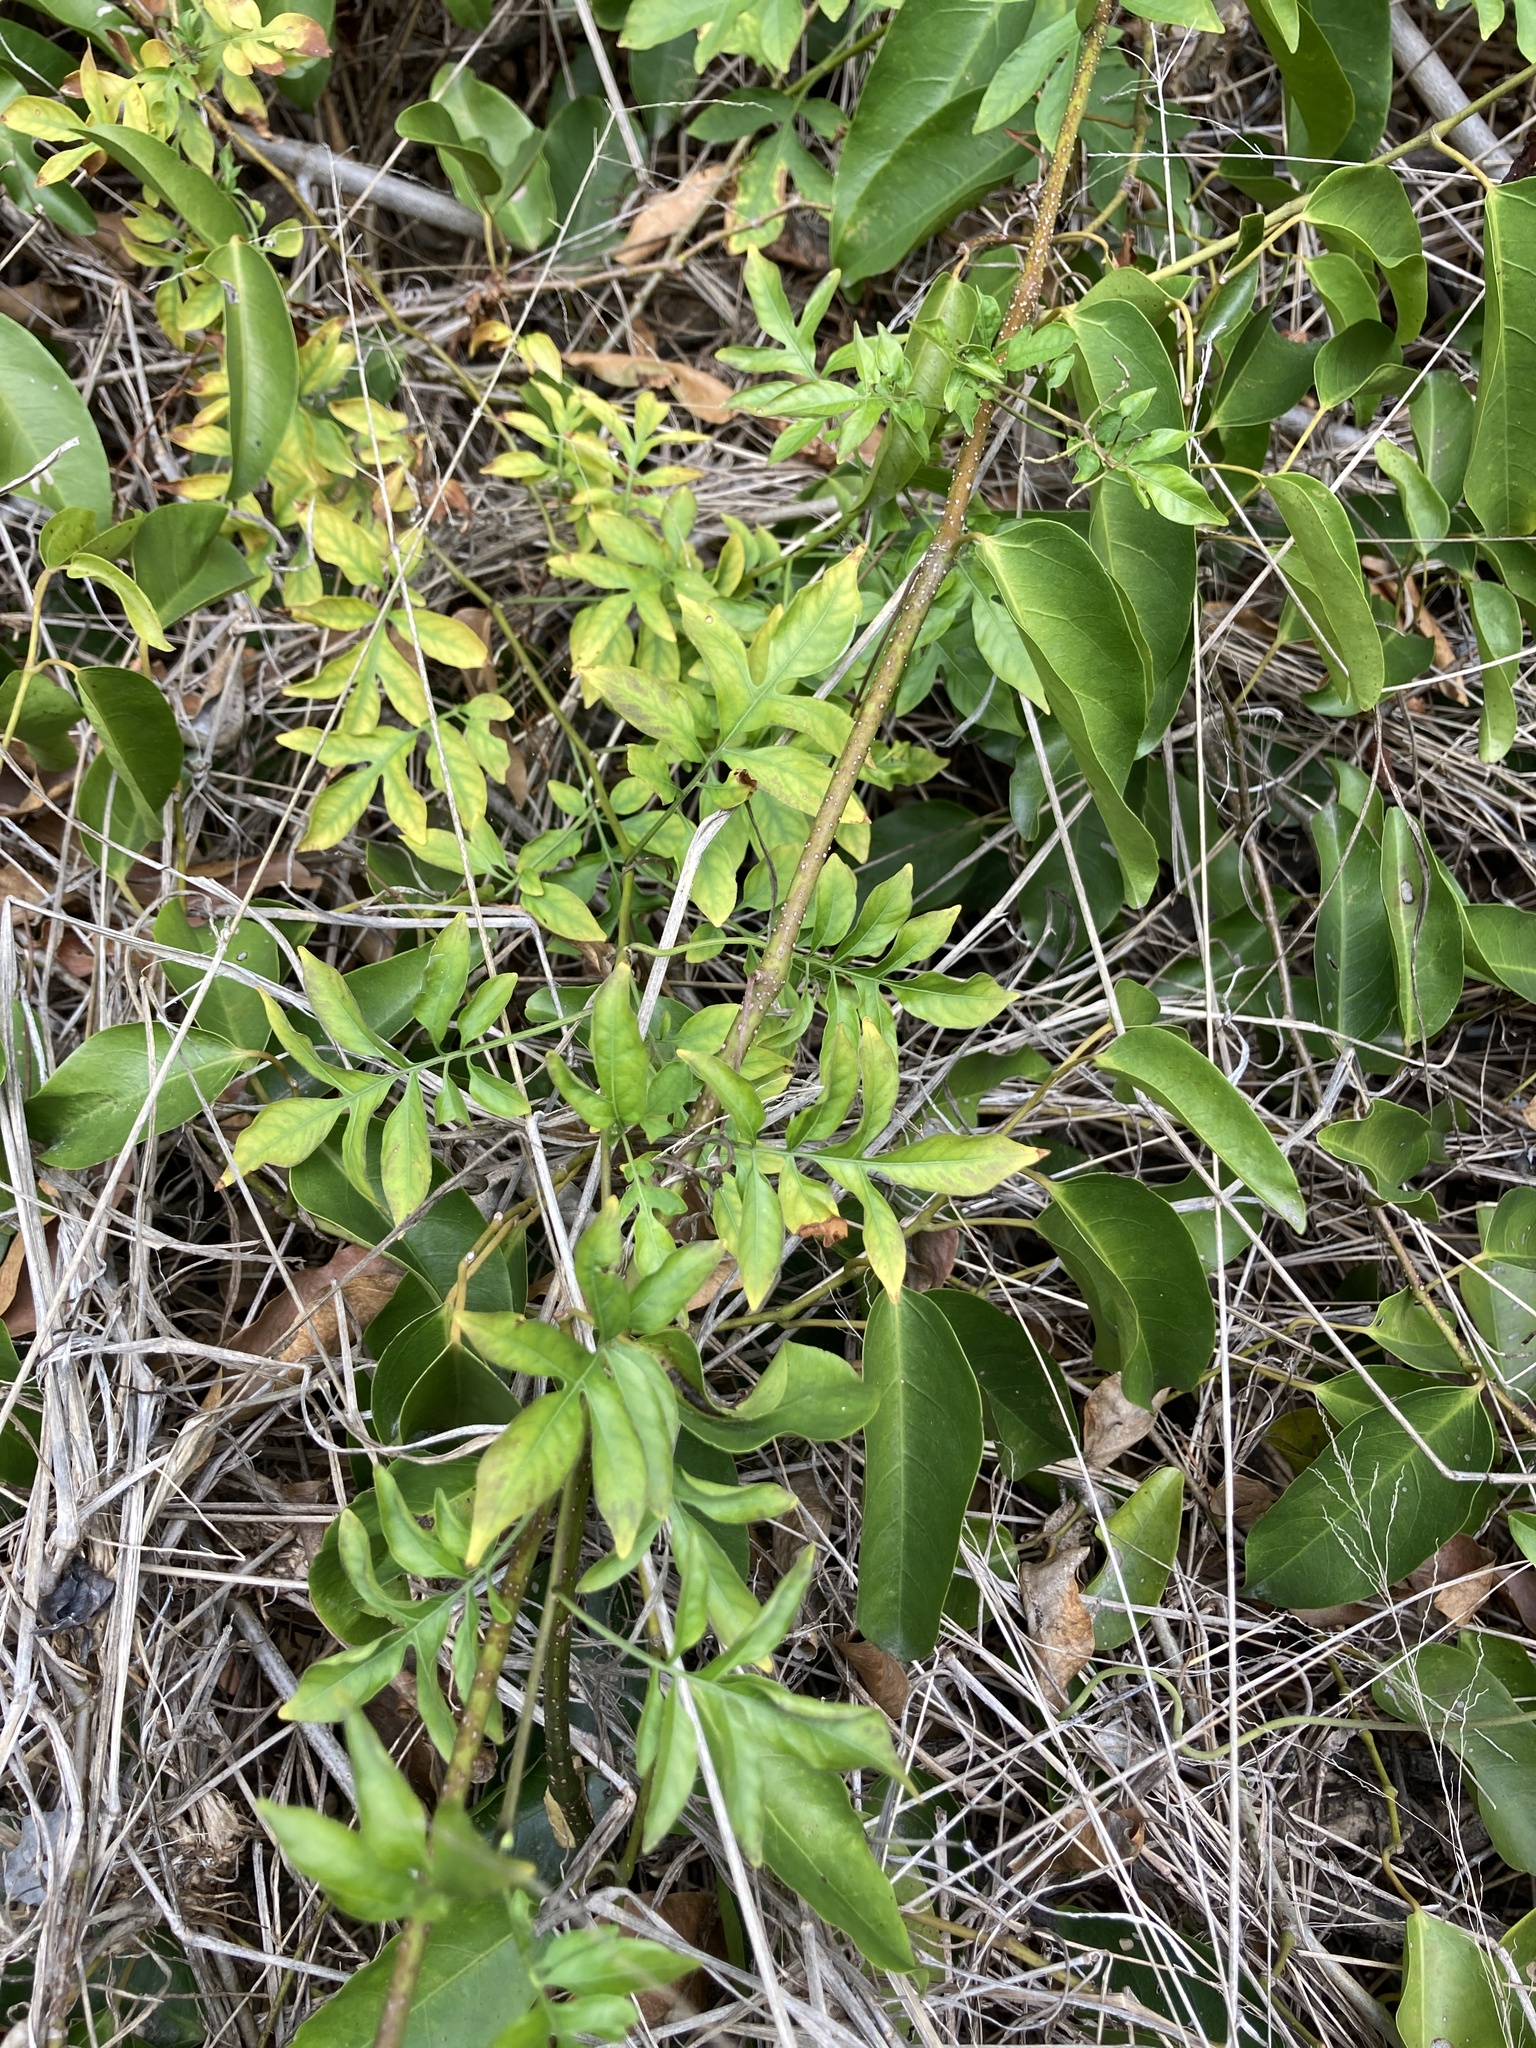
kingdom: Plantae
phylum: Tracheophyta
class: Magnoliopsida
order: Solanales
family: Solanaceae
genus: Solanum
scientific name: Solanum seaforthianum
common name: Brazilian nightshade
